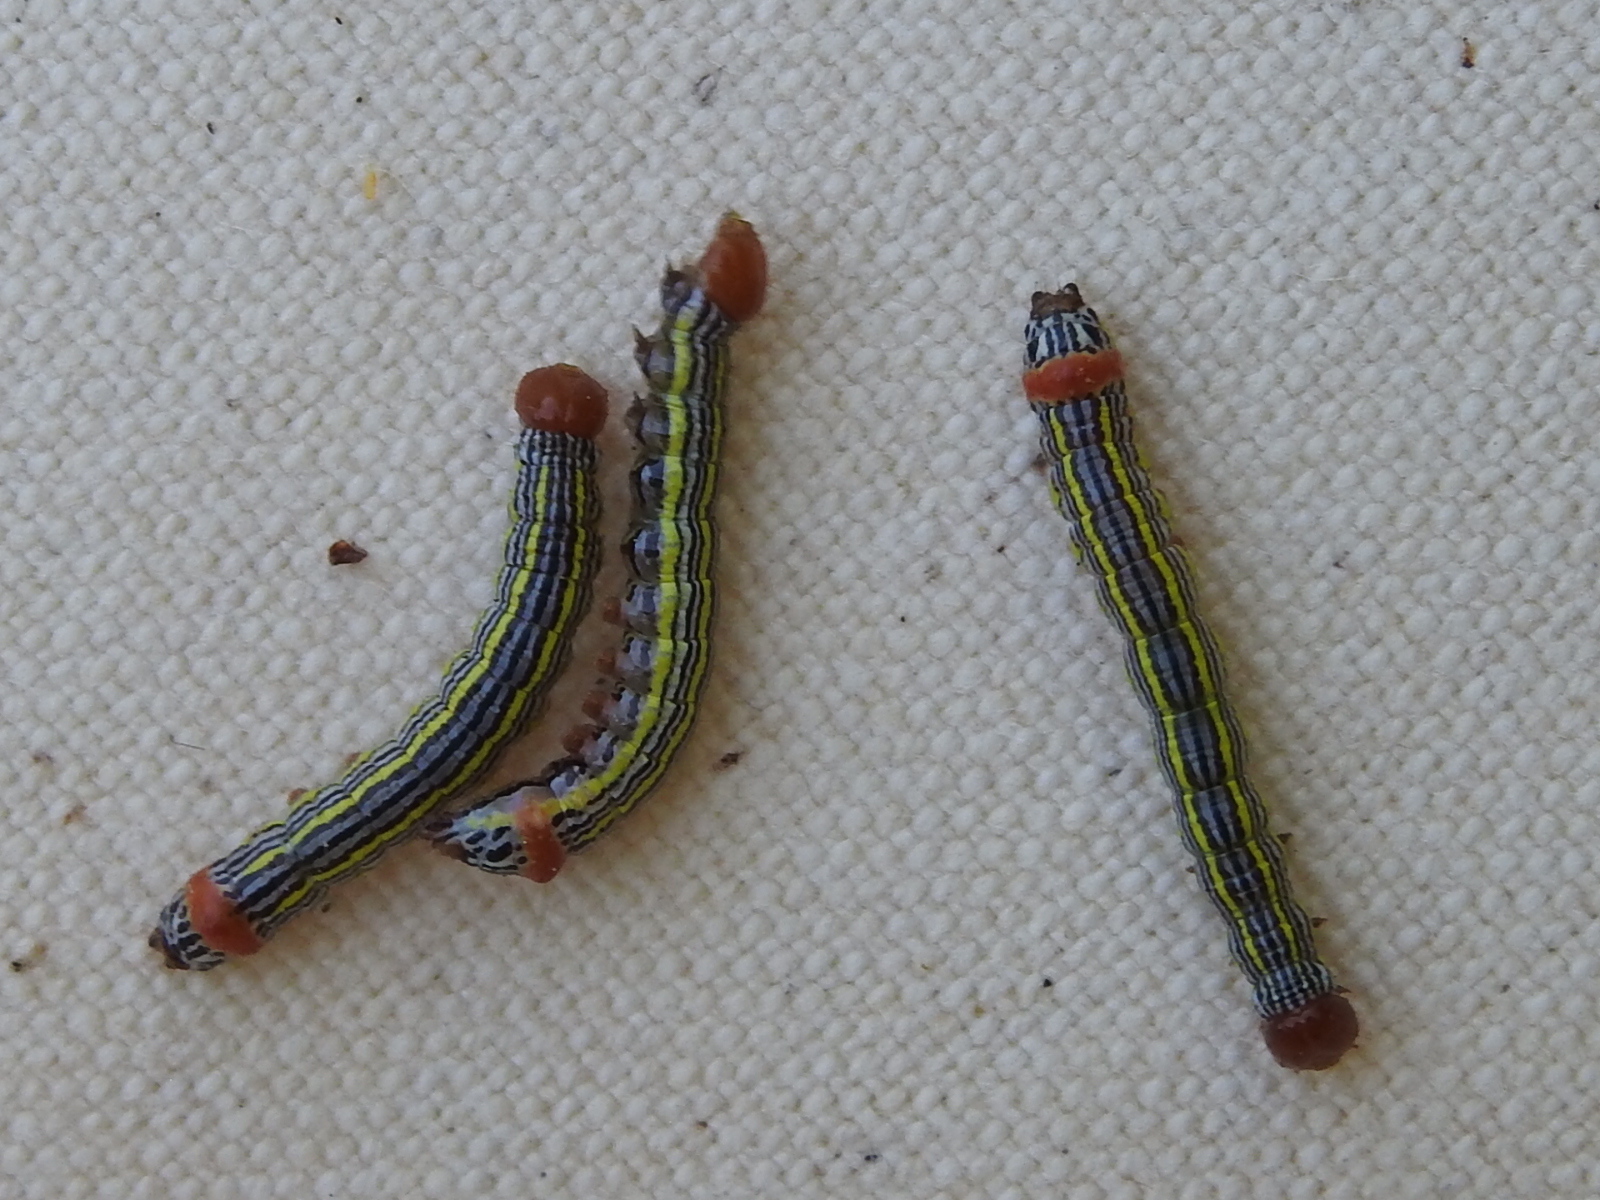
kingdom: Animalia
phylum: Arthropoda
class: Insecta
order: Lepidoptera
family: Notodontidae
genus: Symmerista
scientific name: Symmerista albifrons
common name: White-headed prominent
